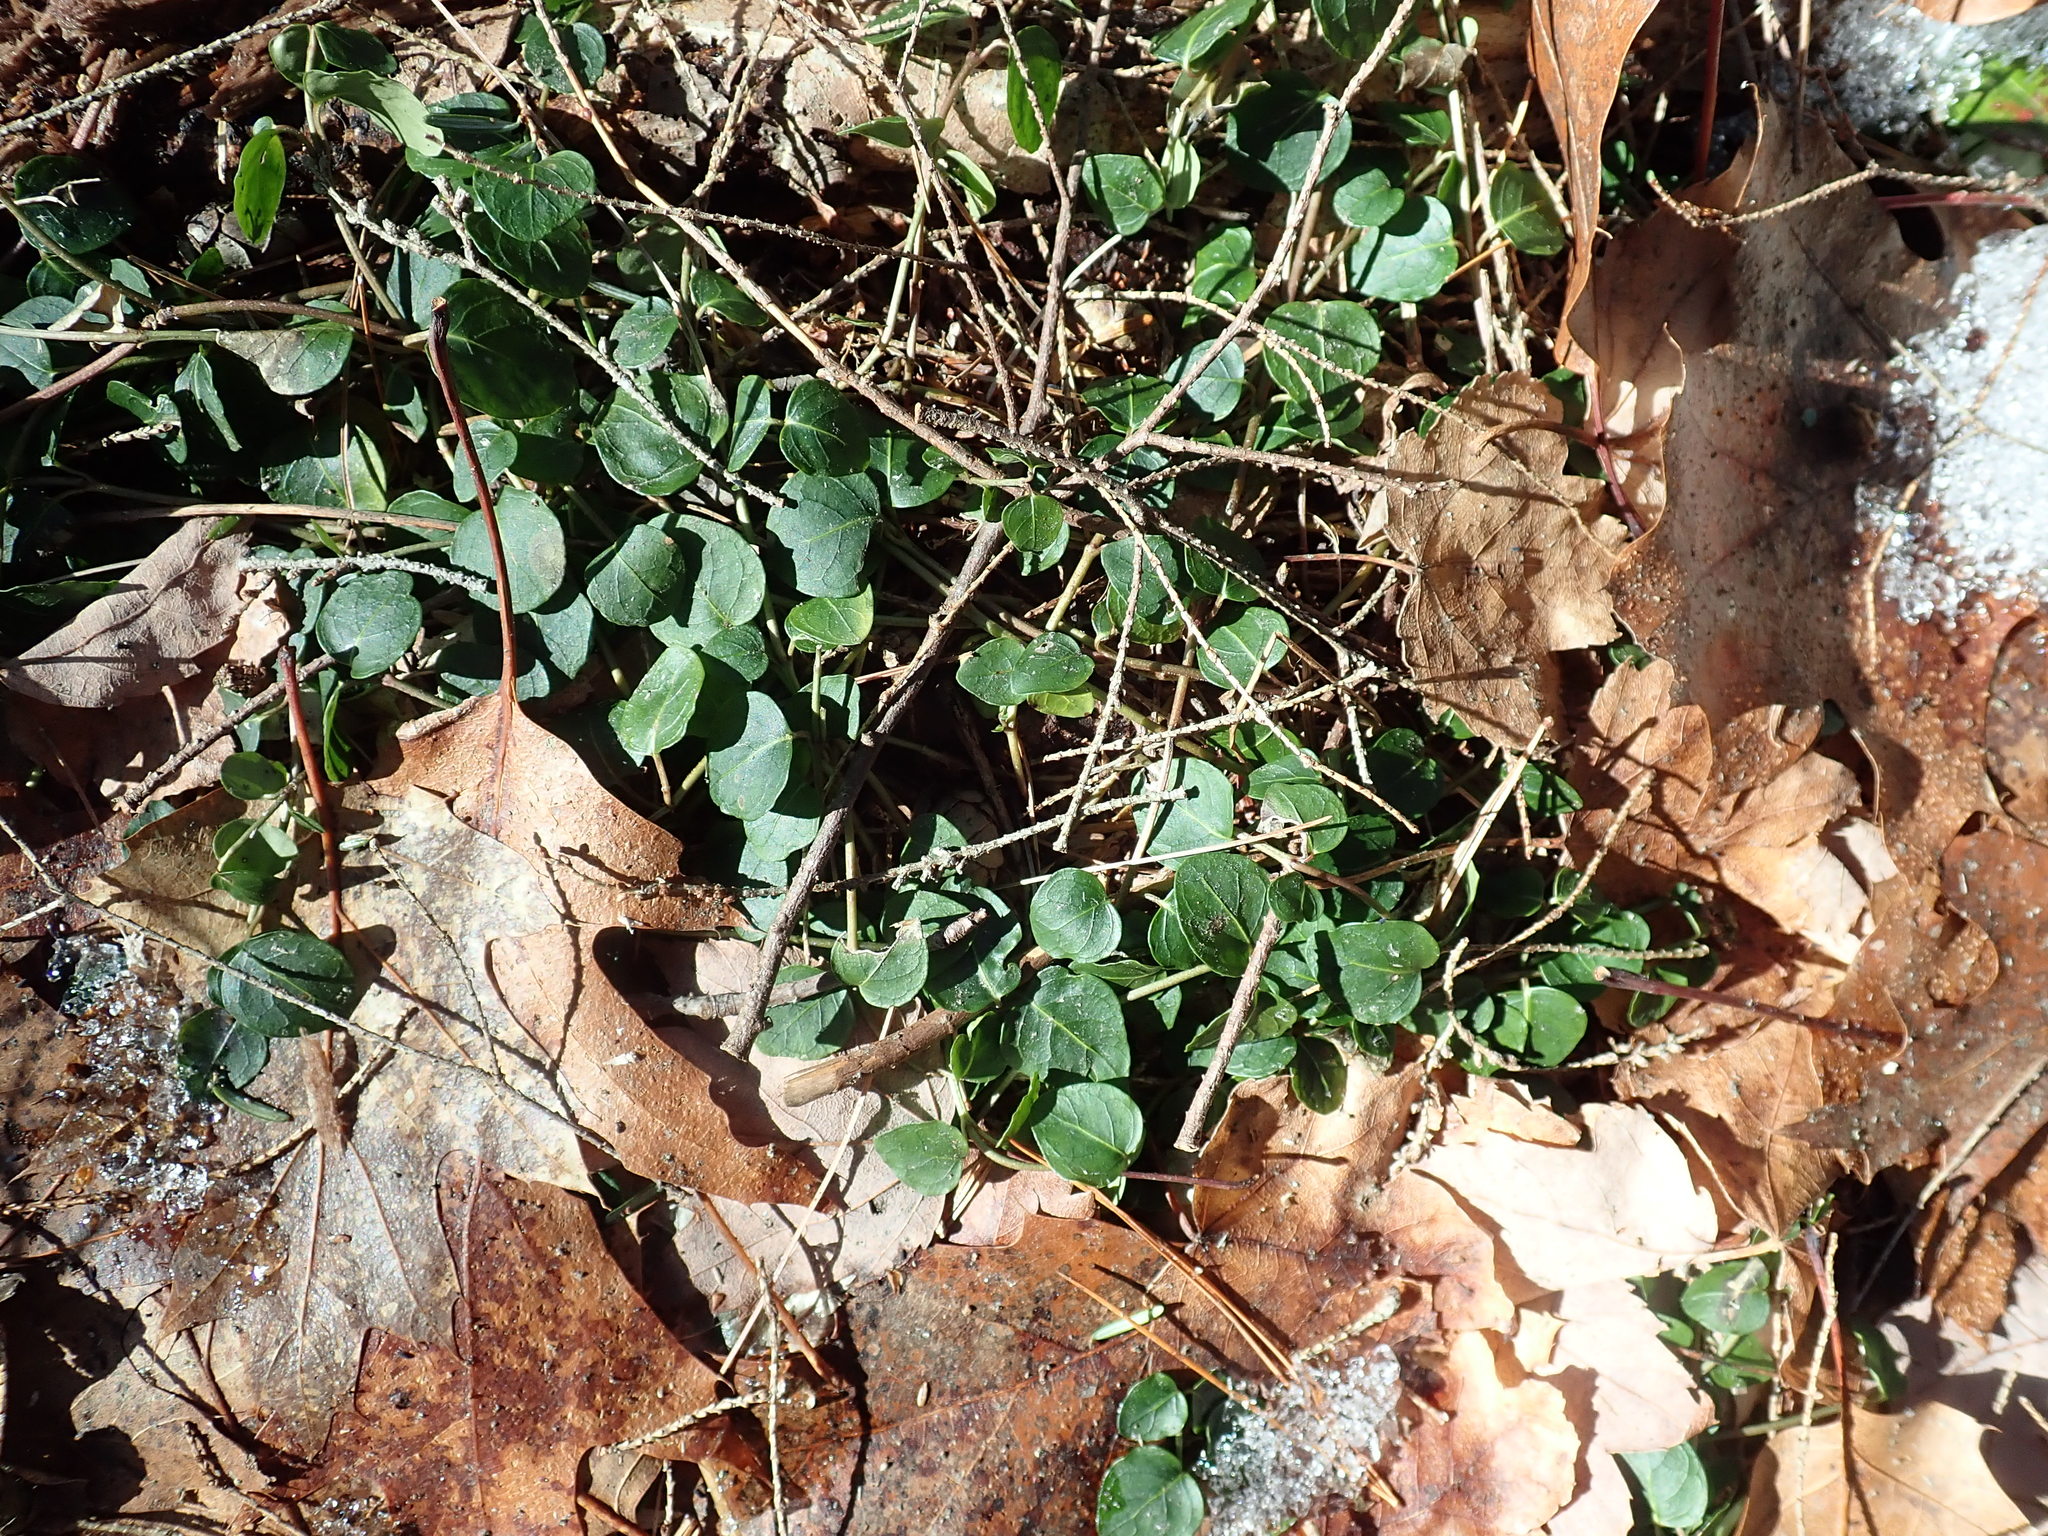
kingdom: Plantae
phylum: Tracheophyta
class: Magnoliopsida
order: Gentianales
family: Rubiaceae
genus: Mitchella
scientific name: Mitchella repens
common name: Partridge-berry
